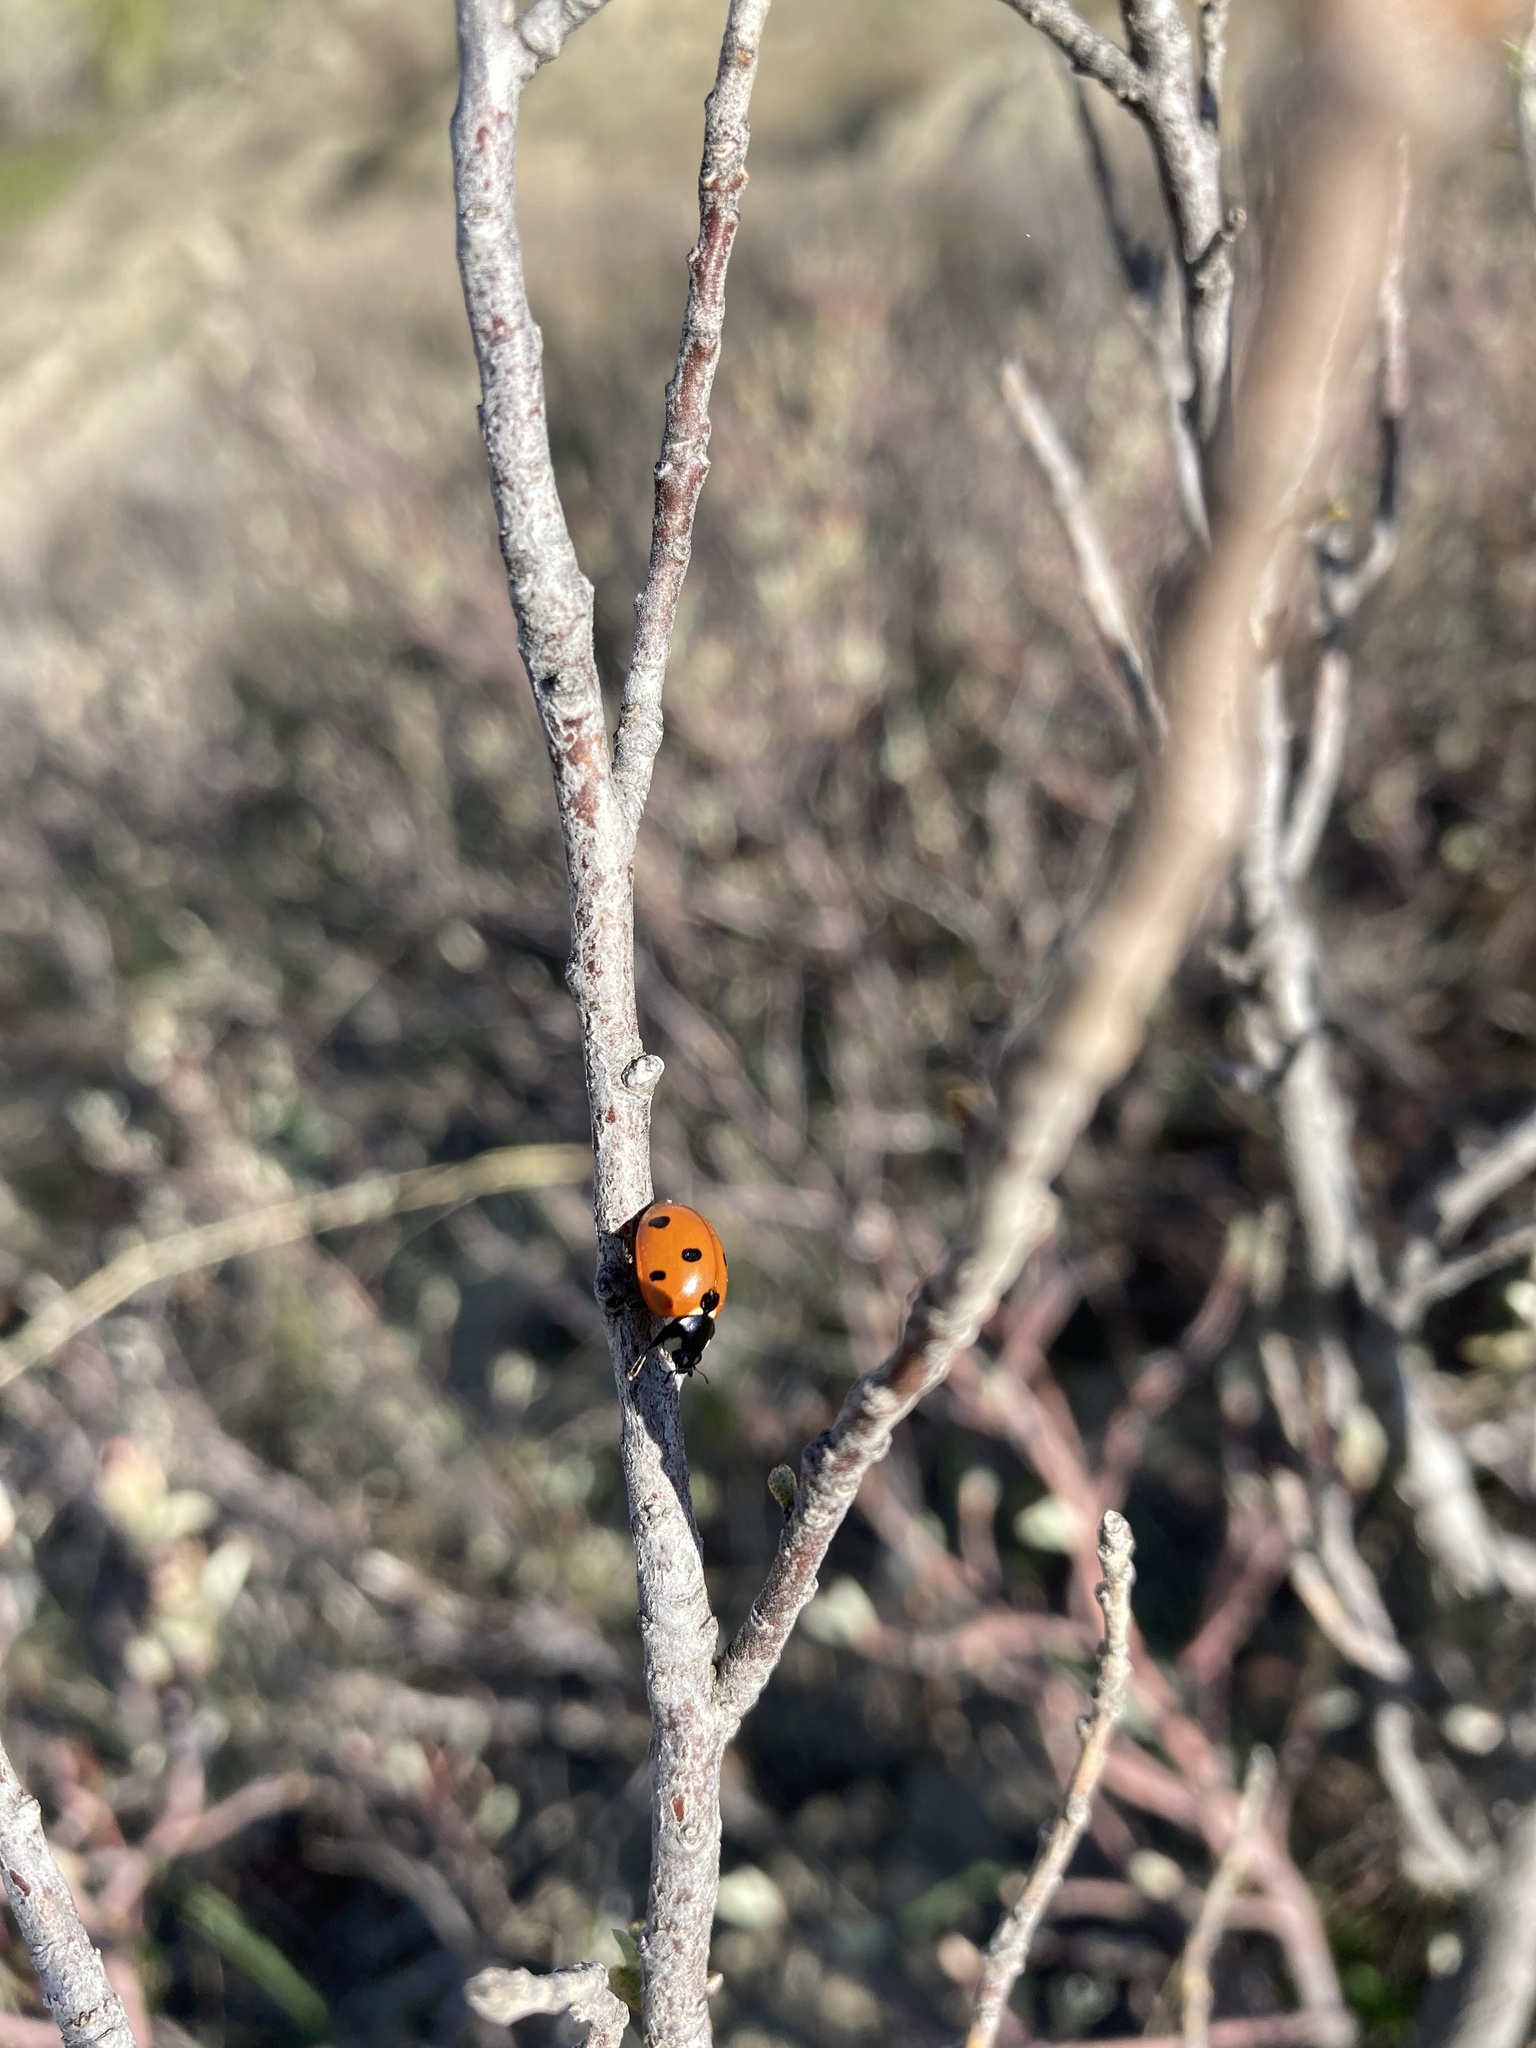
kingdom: Animalia
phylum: Arthropoda
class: Insecta
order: Coleoptera
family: Coccinellidae
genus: Coccinella
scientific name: Coccinella septempunctata
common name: Sevenspotted lady beetle
